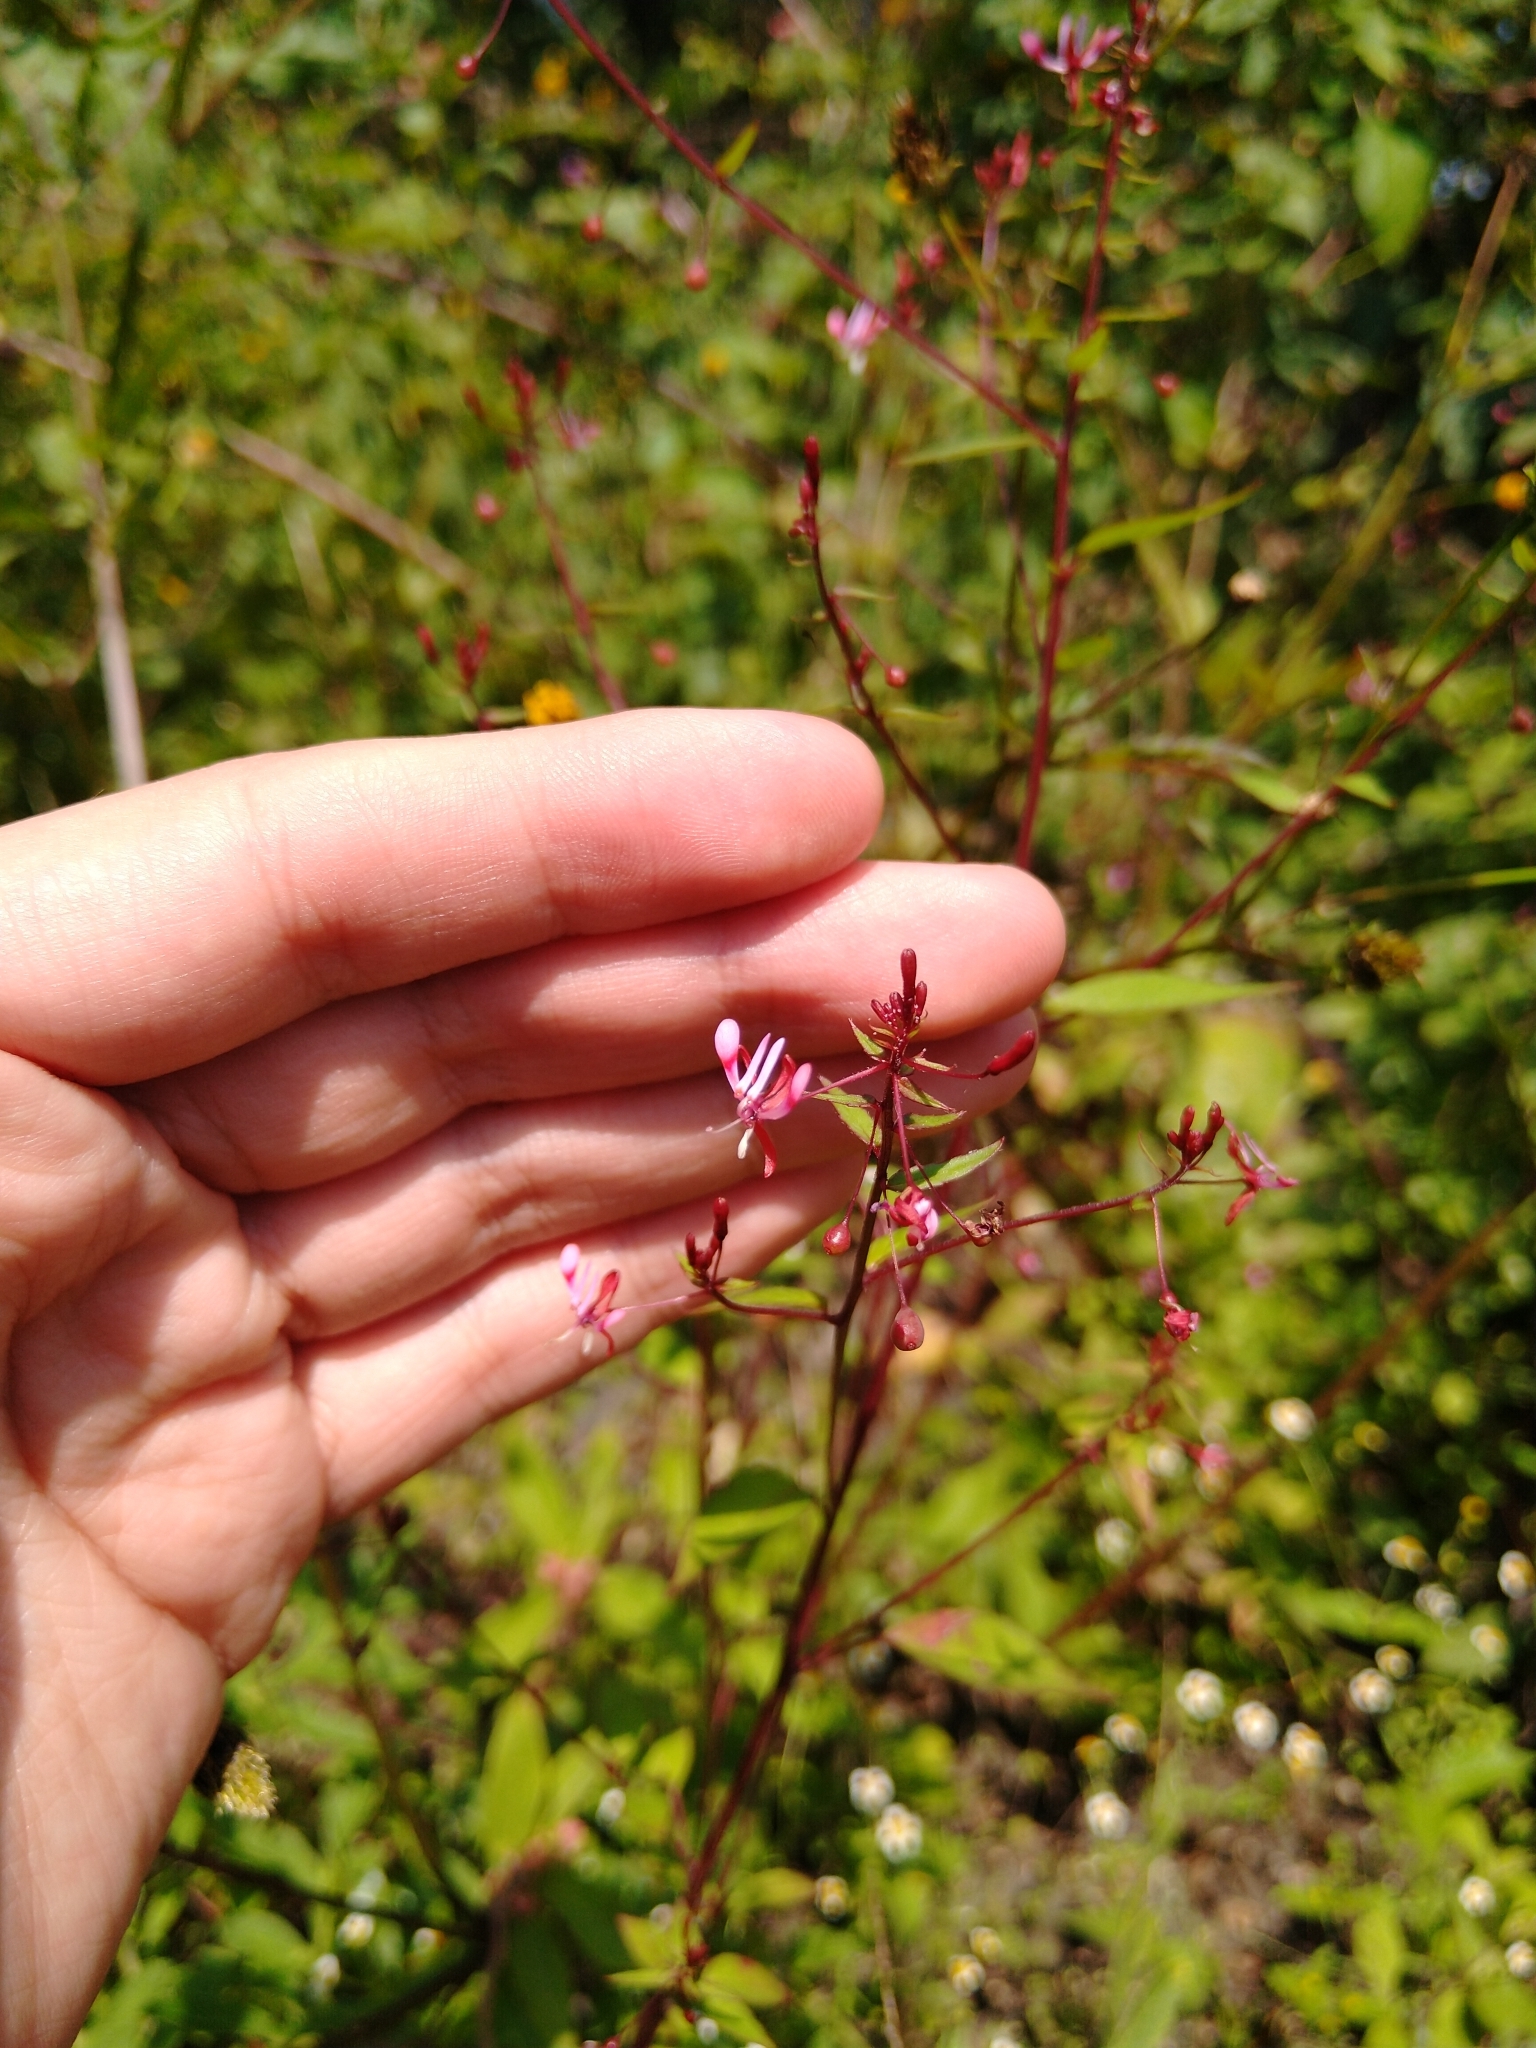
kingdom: Plantae
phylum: Tracheophyta
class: Magnoliopsida
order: Myrtales
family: Onagraceae
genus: Lopezia
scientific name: Lopezia racemosa
